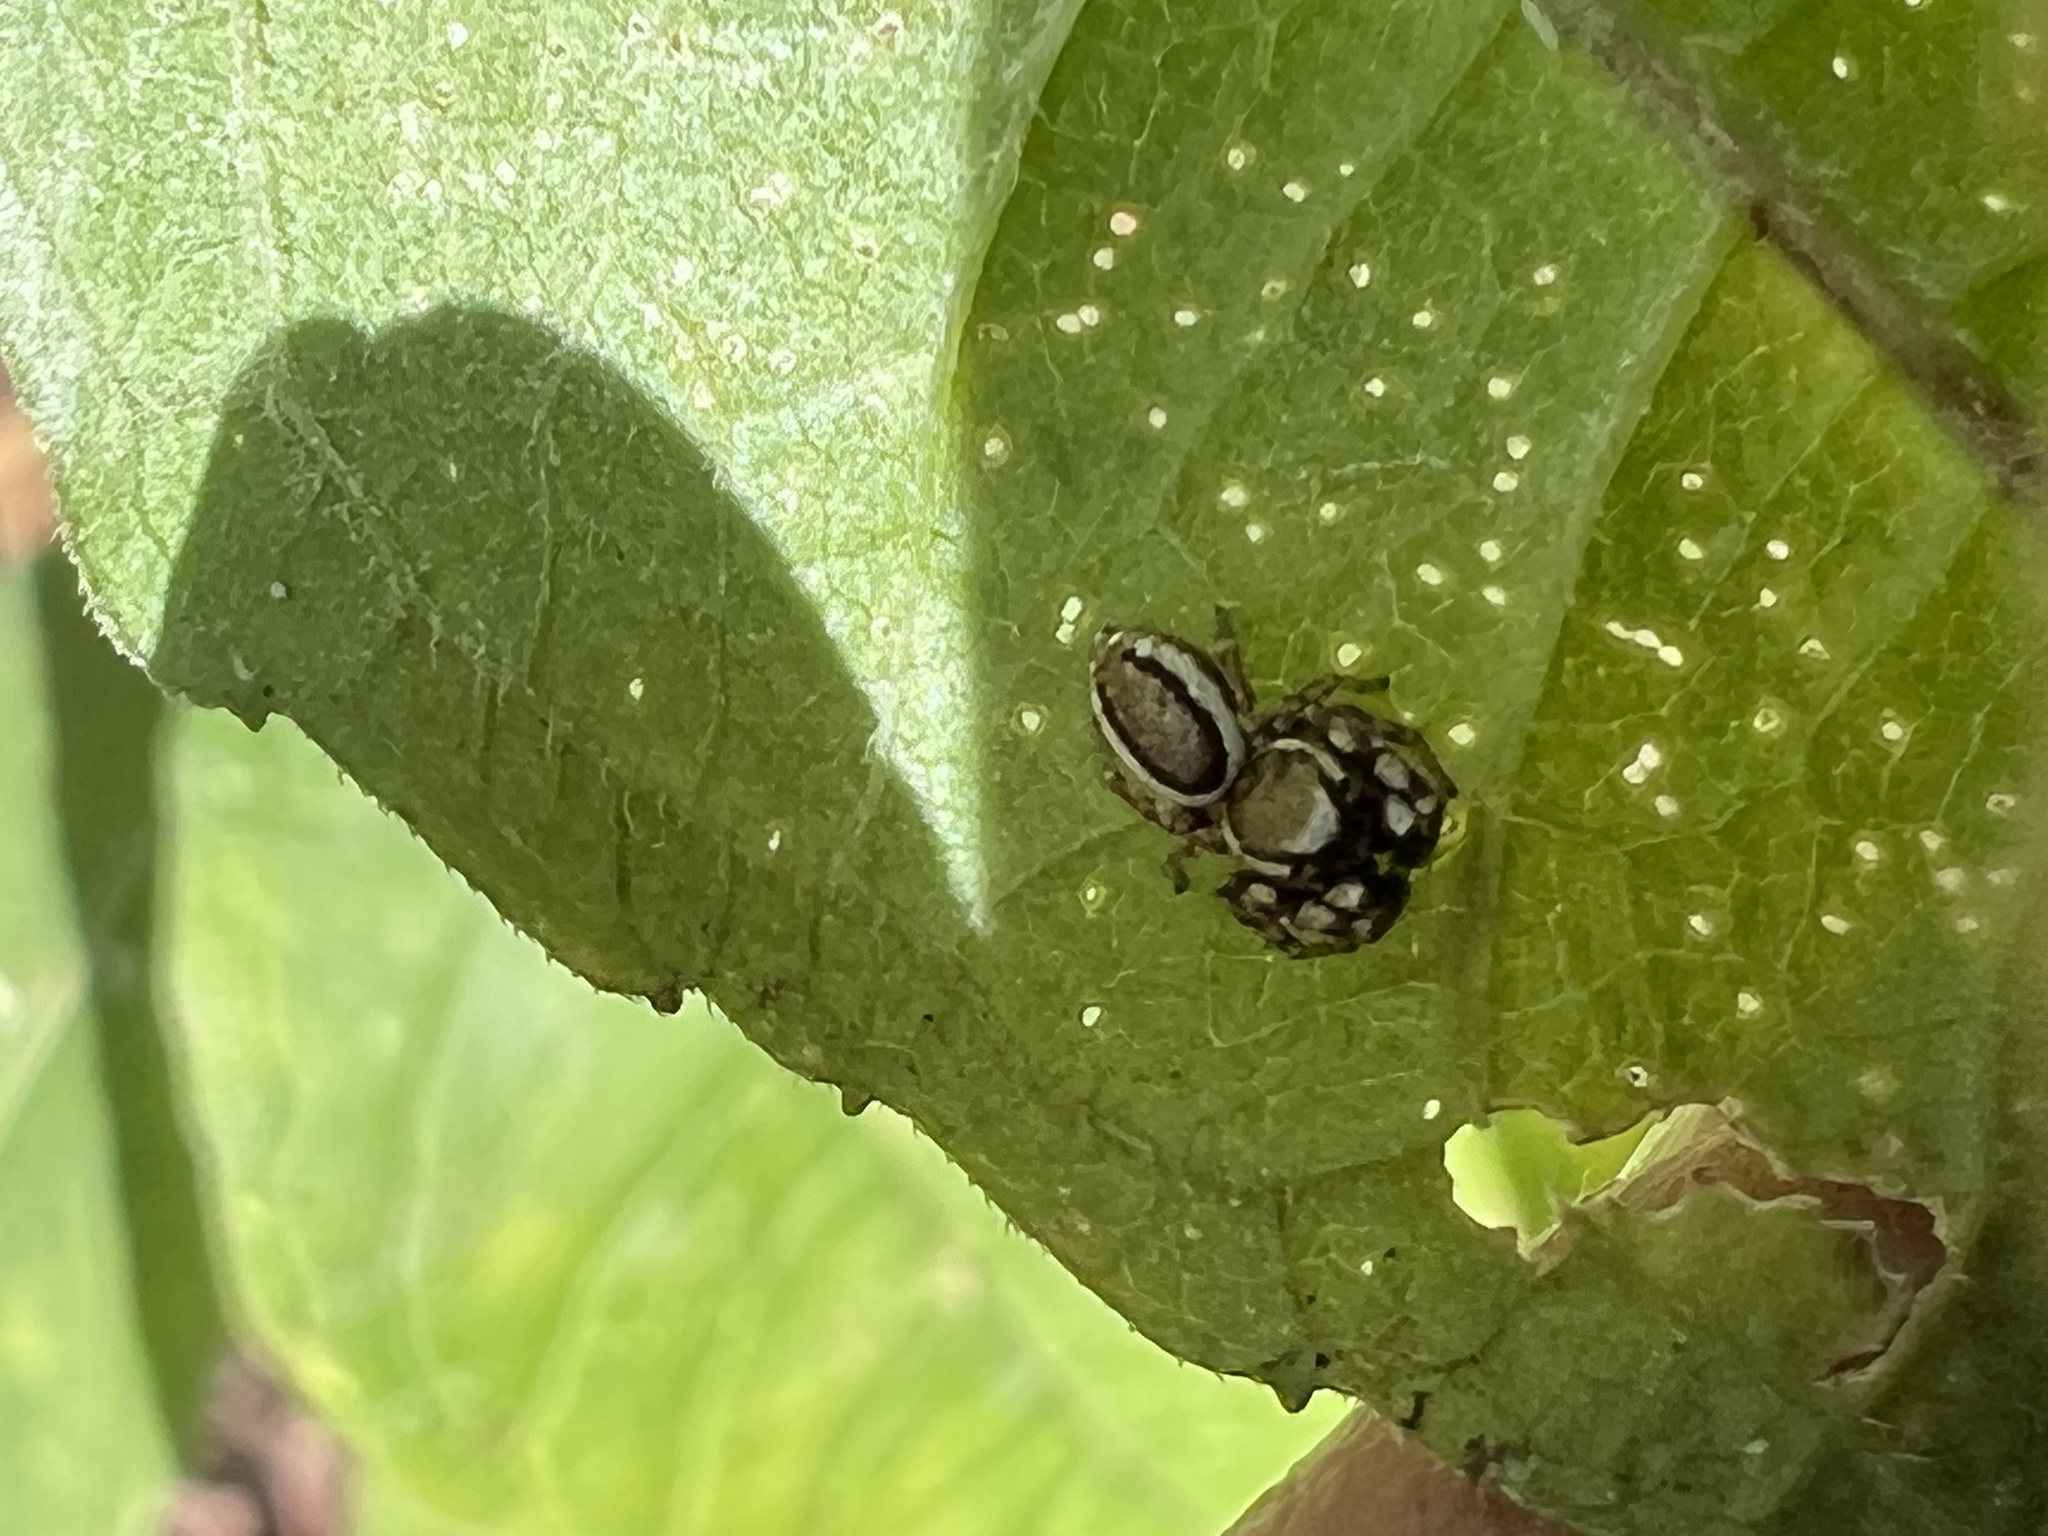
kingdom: Animalia
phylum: Arthropoda
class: Arachnida
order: Araneae
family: Salticidae
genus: Pelegrina
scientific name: Pelegrina proterva
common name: Common white-cheeked jumping spider
